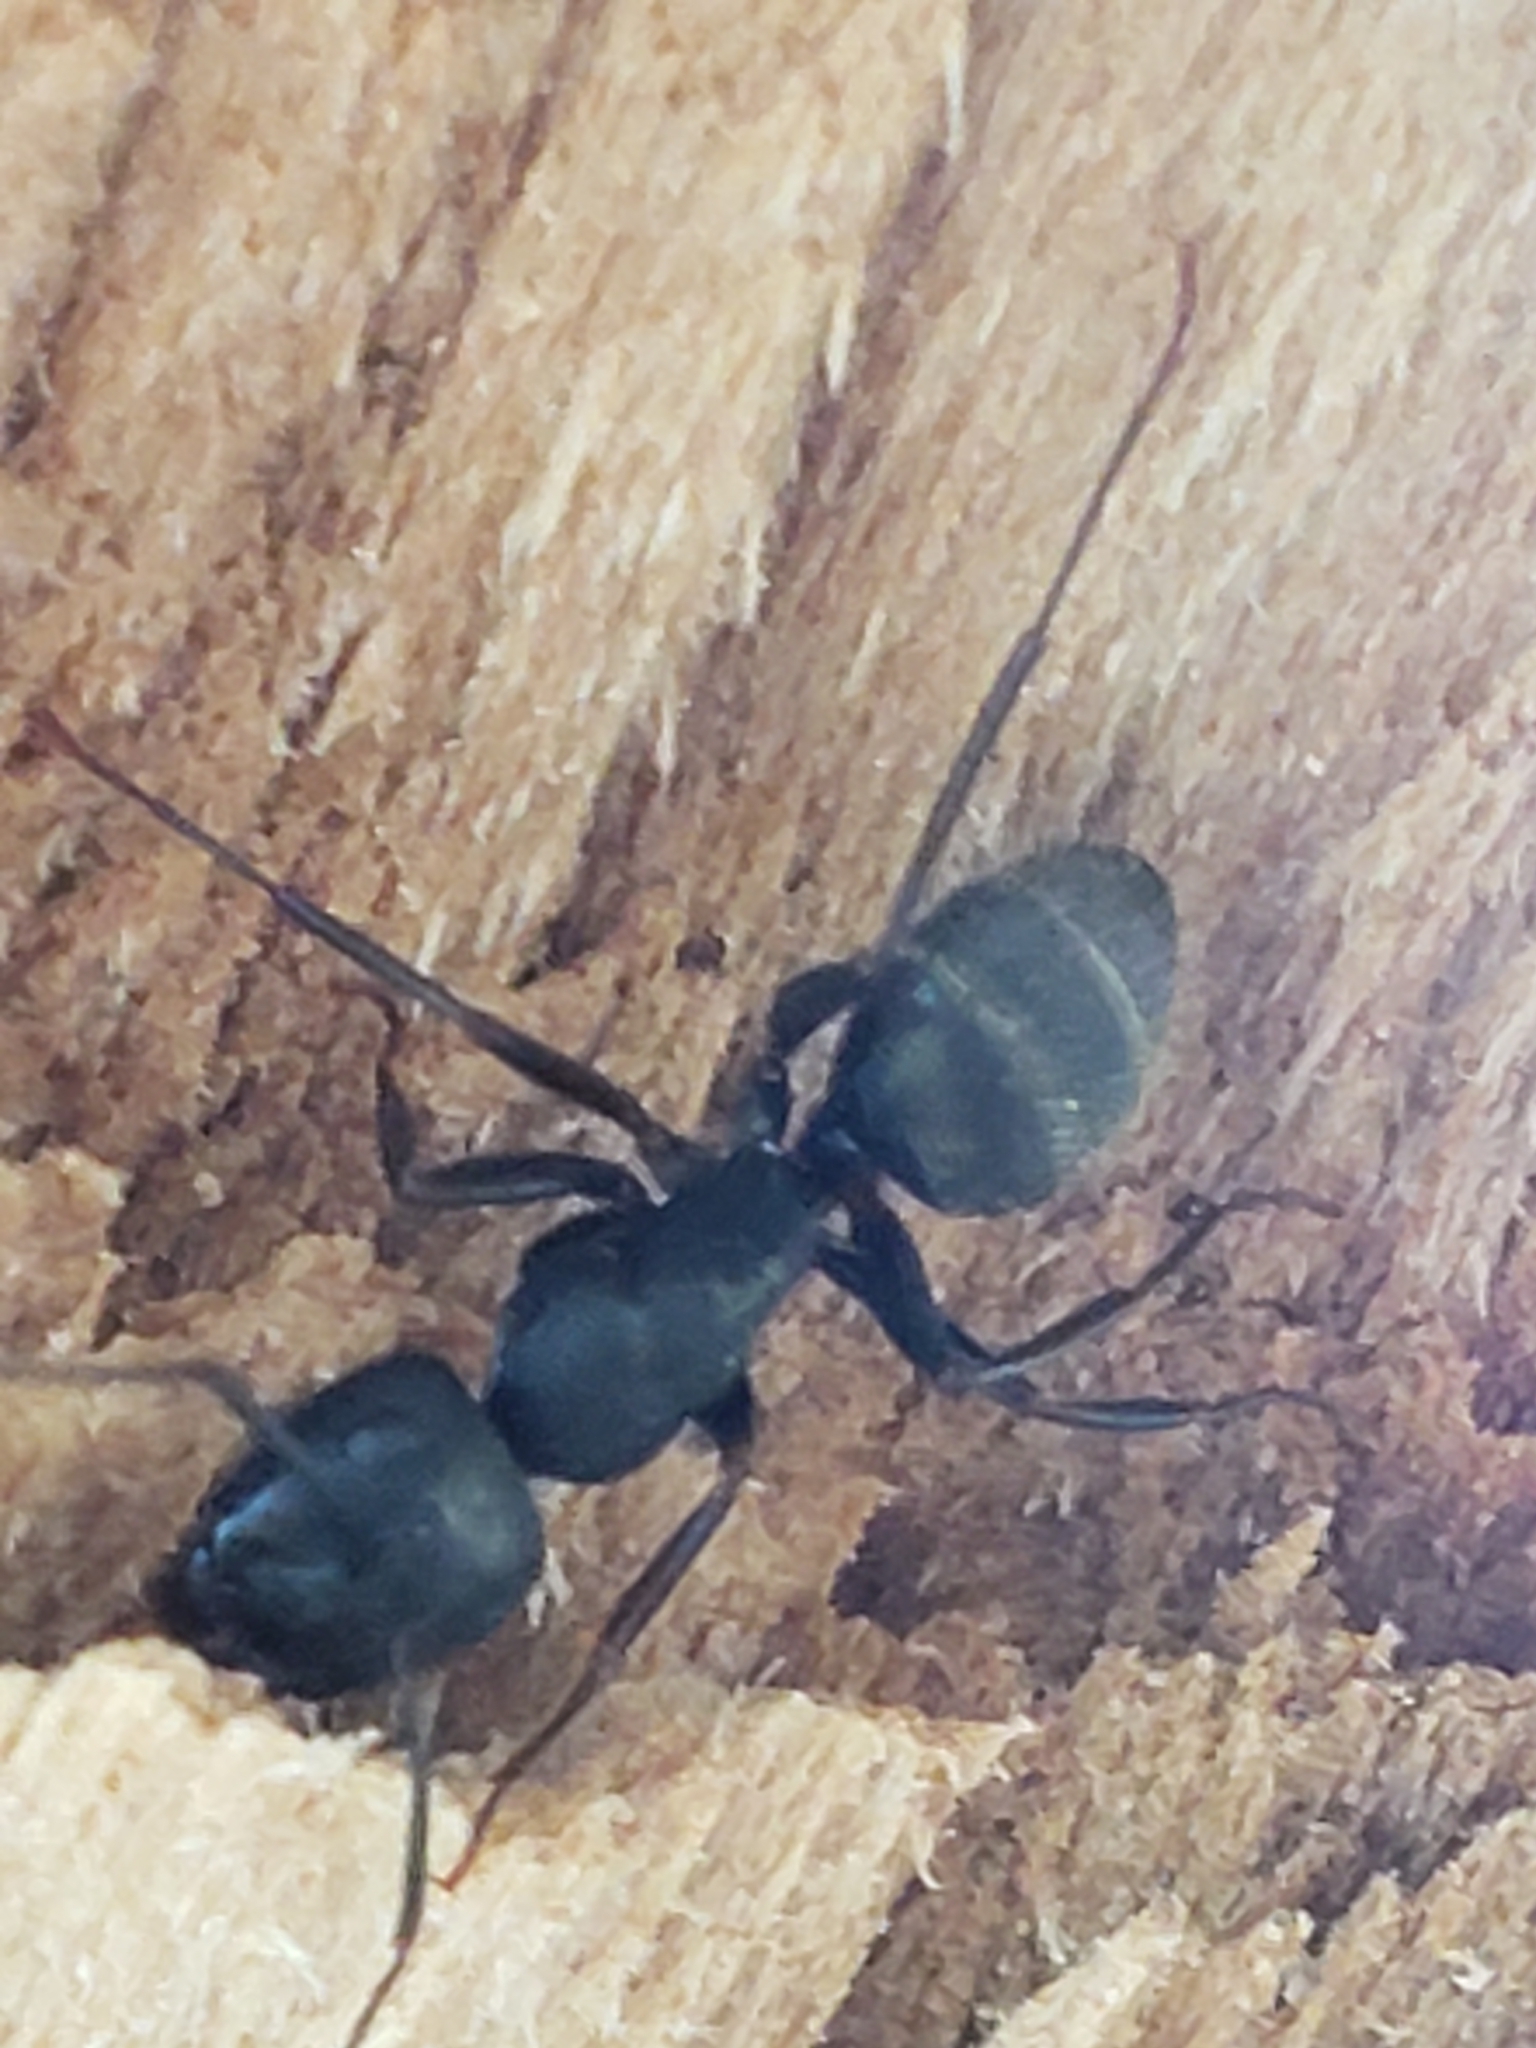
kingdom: Animalia
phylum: Arthropoda
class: Insecta
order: Hymenoptera
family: Formicidae
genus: Camponotus
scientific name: Camponotus modoc
